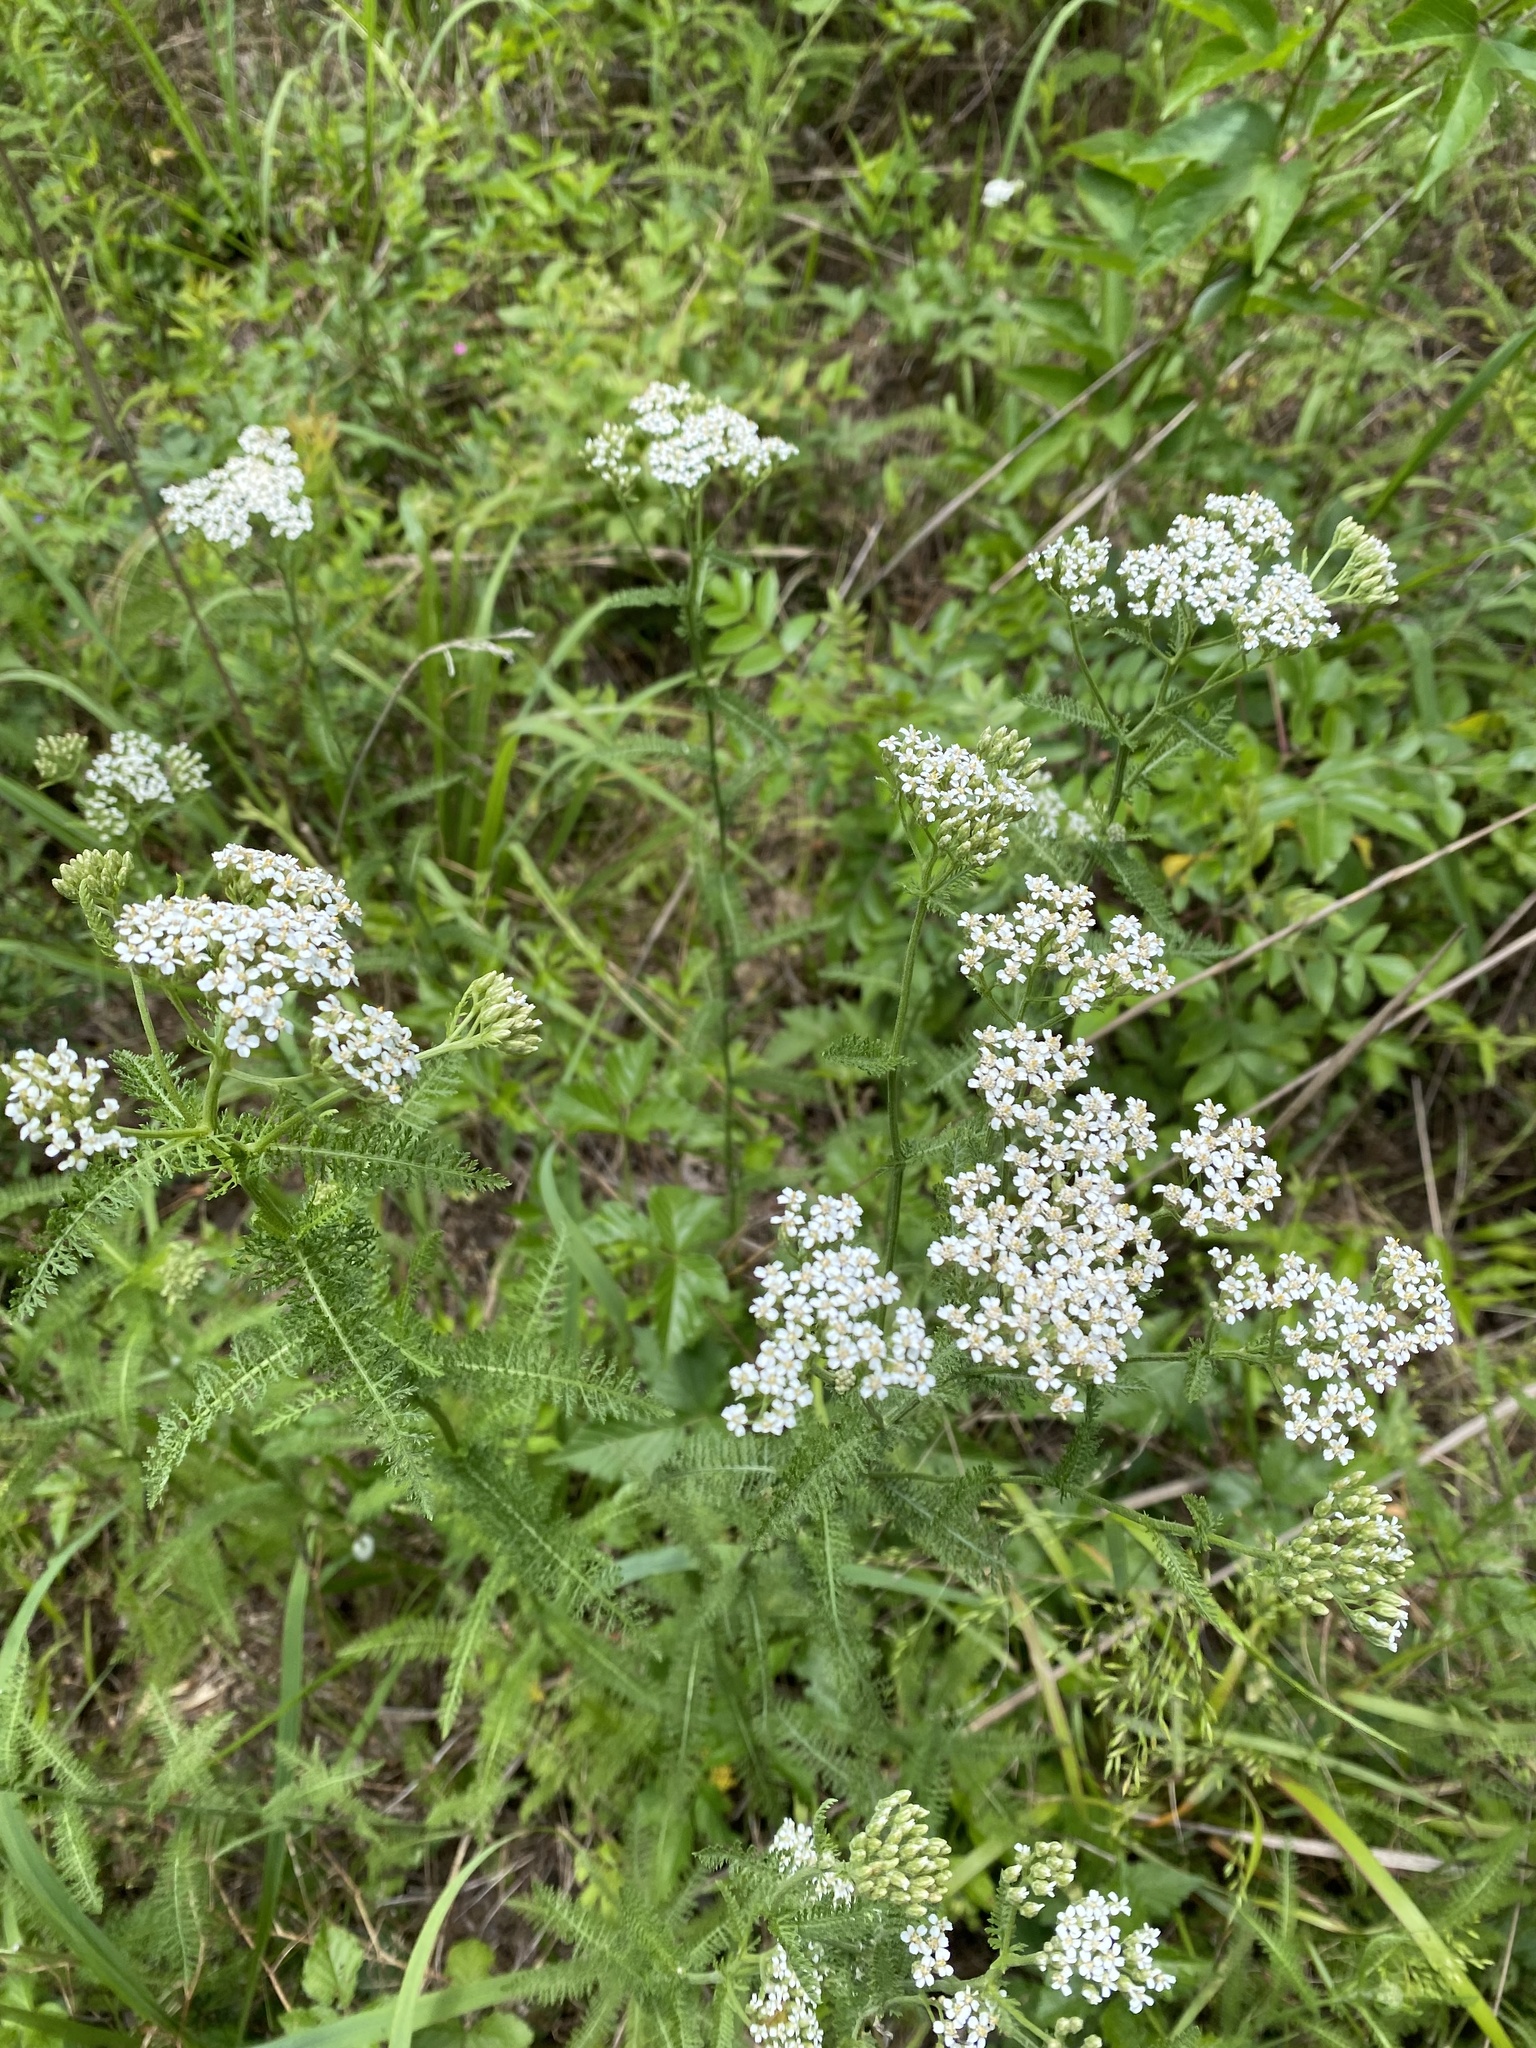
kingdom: Plantae
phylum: Tracheophyta
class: Magnoliopsida
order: Asterales
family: Asteraceae
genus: Achillea
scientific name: Achillea millefolium
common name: Yarrow
